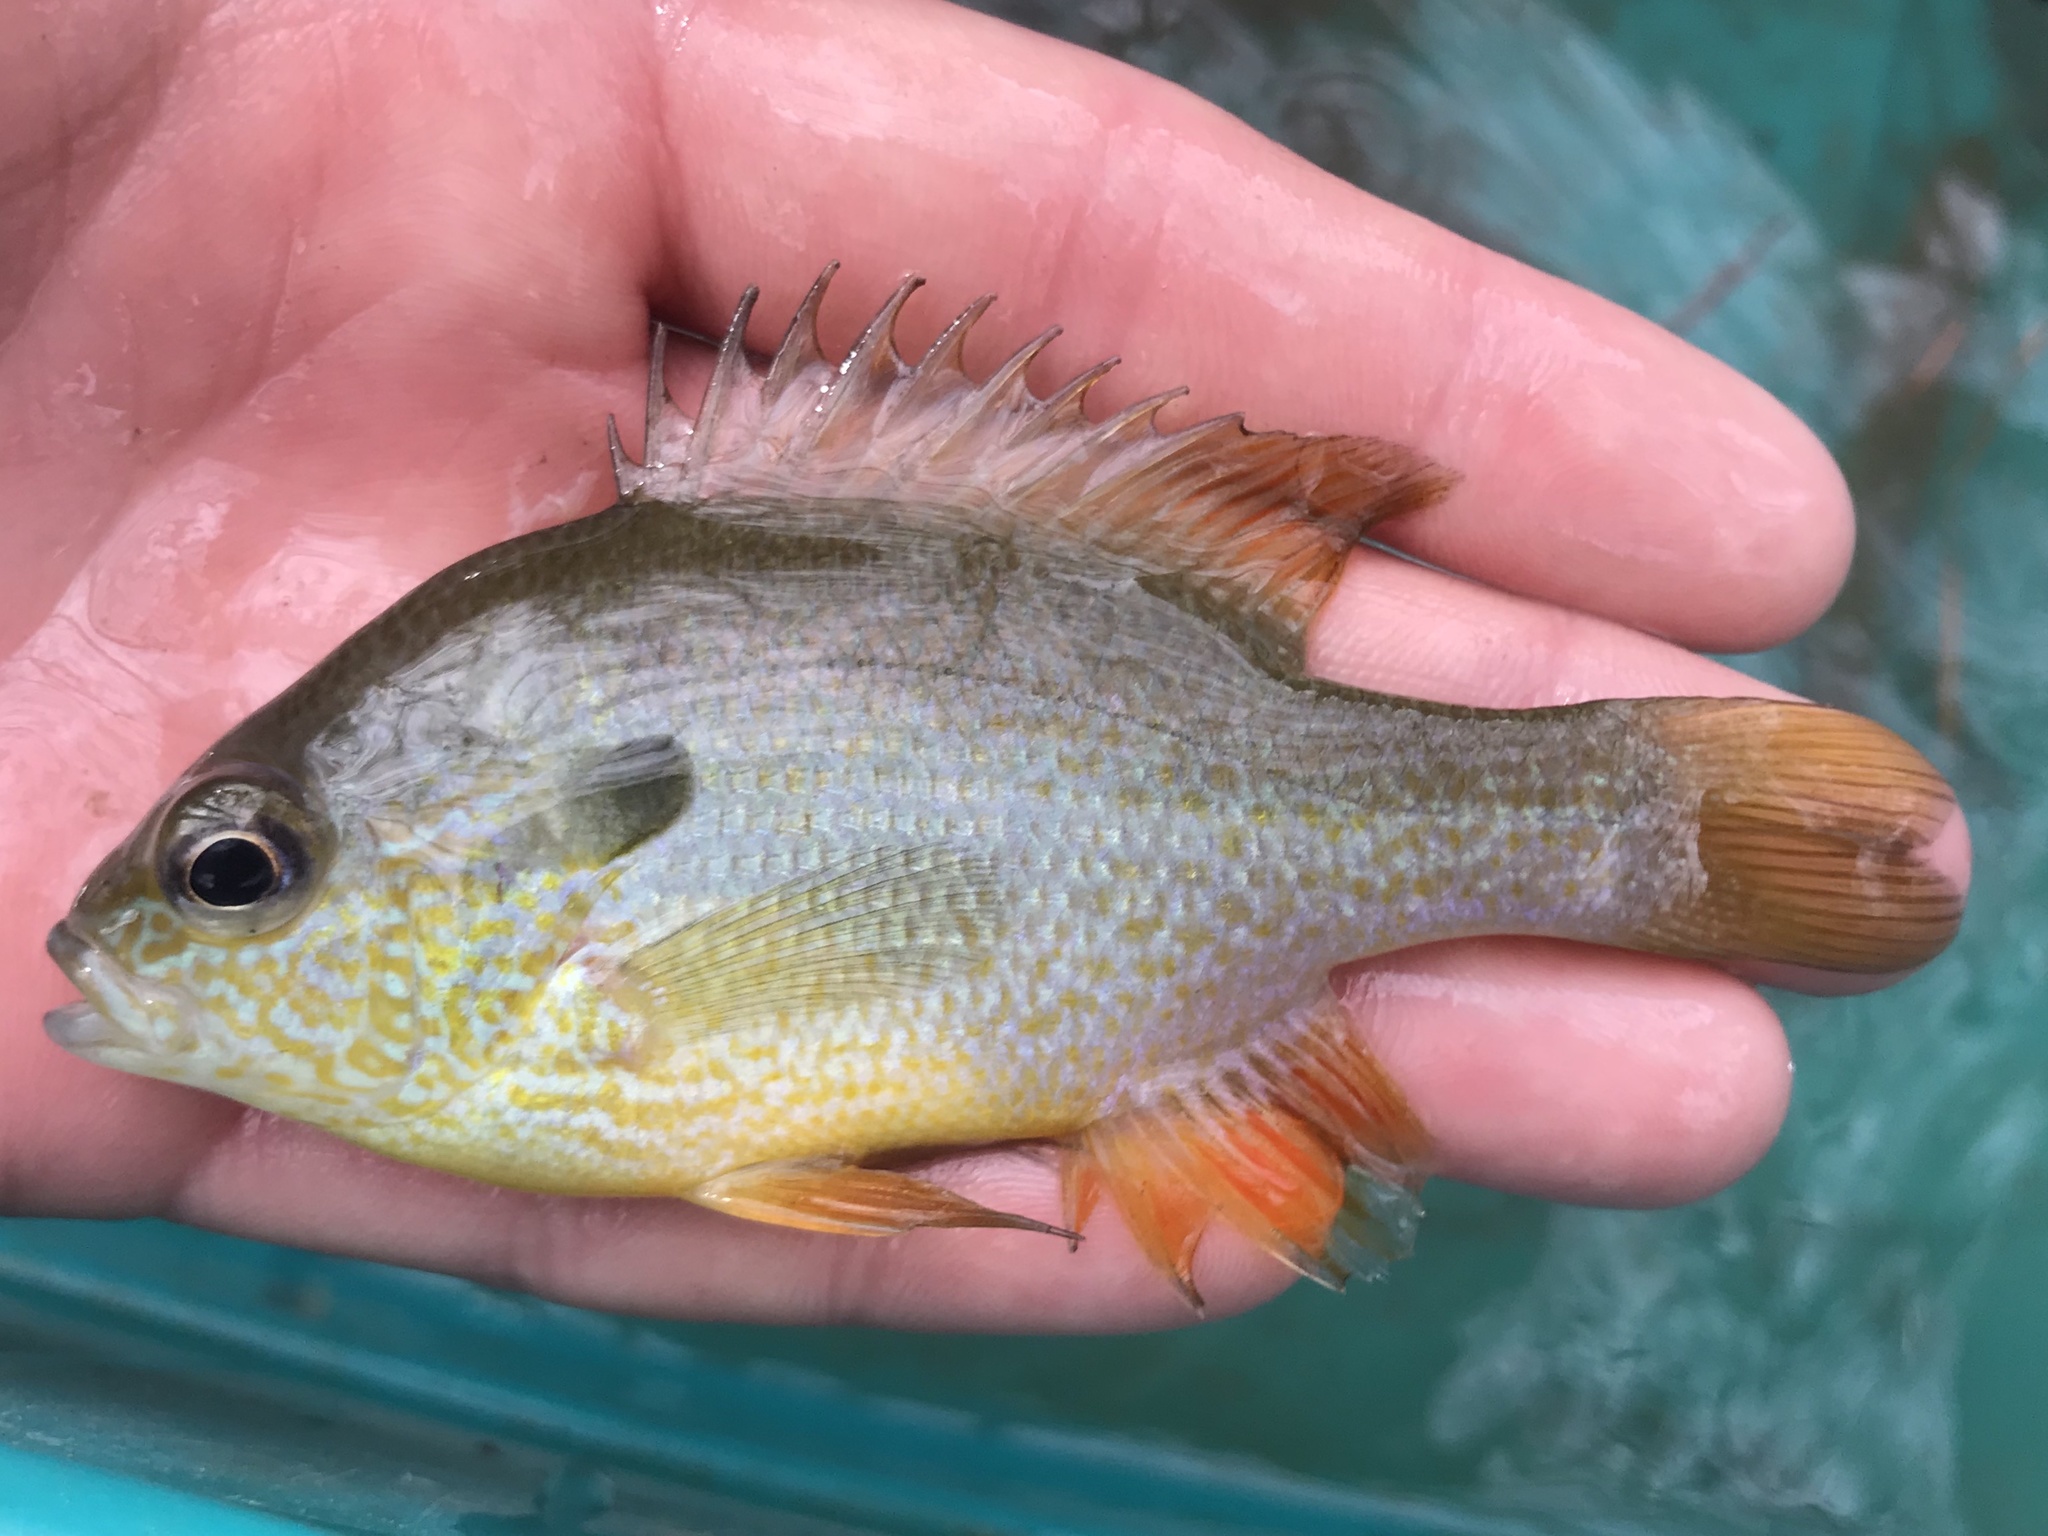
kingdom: Animalia
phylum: Chordata
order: Perciformes
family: Centrarchidae
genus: Lepomis
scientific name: Lepomis megalotis
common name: Longear sunfish
